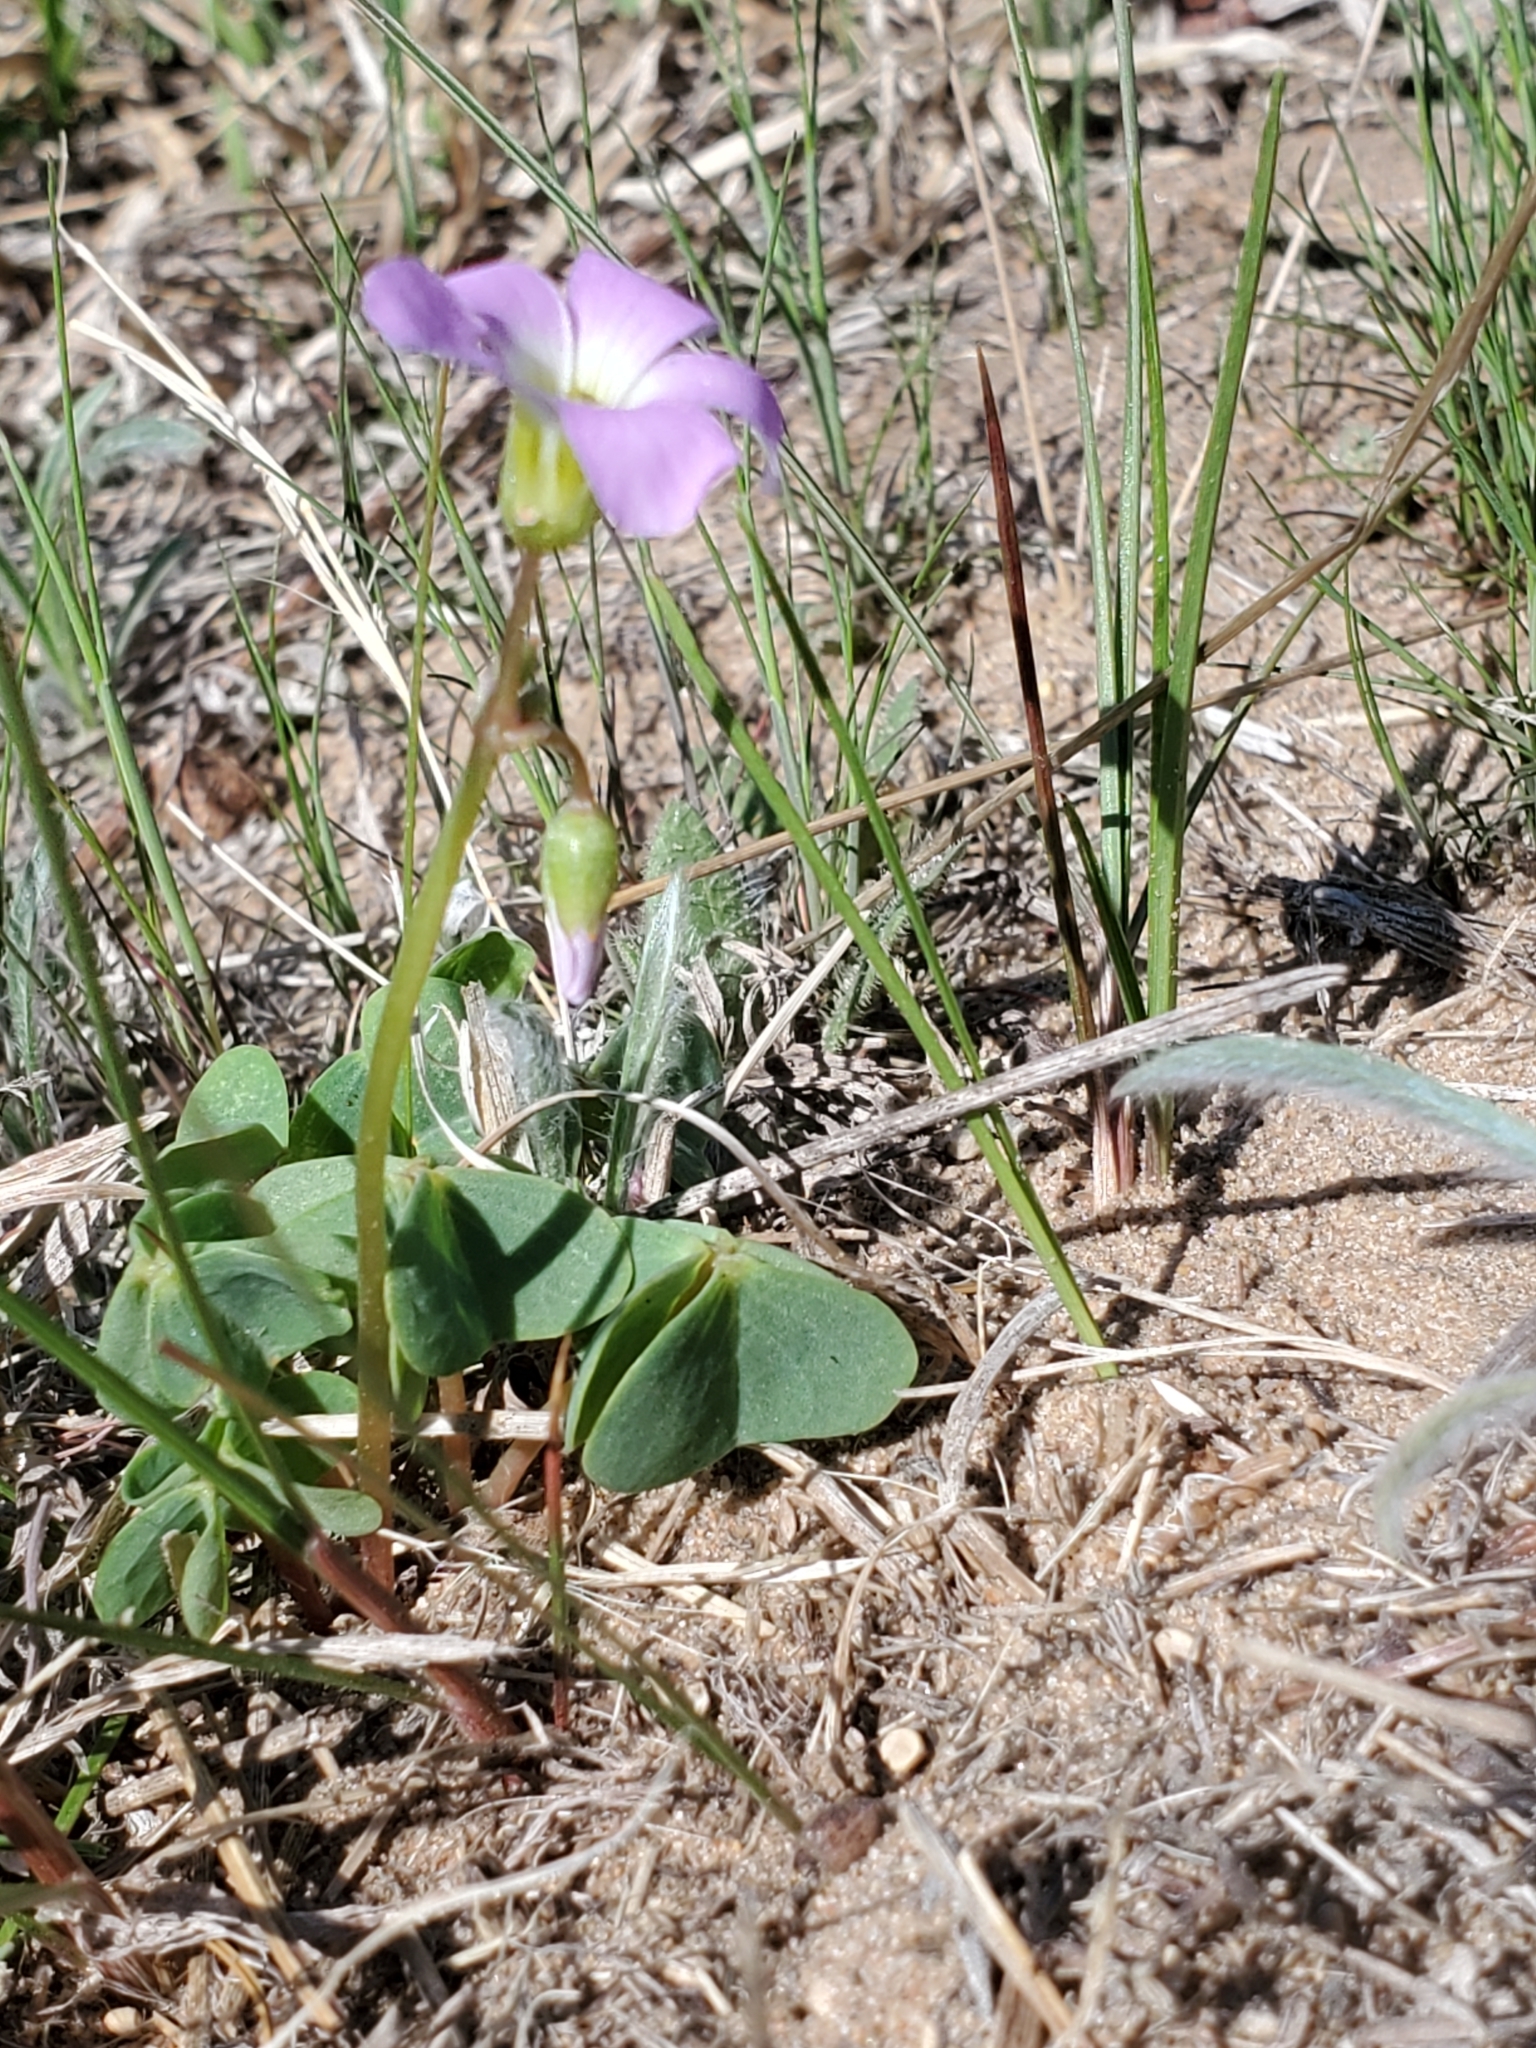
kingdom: Plantae
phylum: Tracheophyta
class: Magnoliopsida
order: Oxalidales
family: Oxalidaceae
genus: Oxalis
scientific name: Oxalis violacea
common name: Violet wood-sorrel
